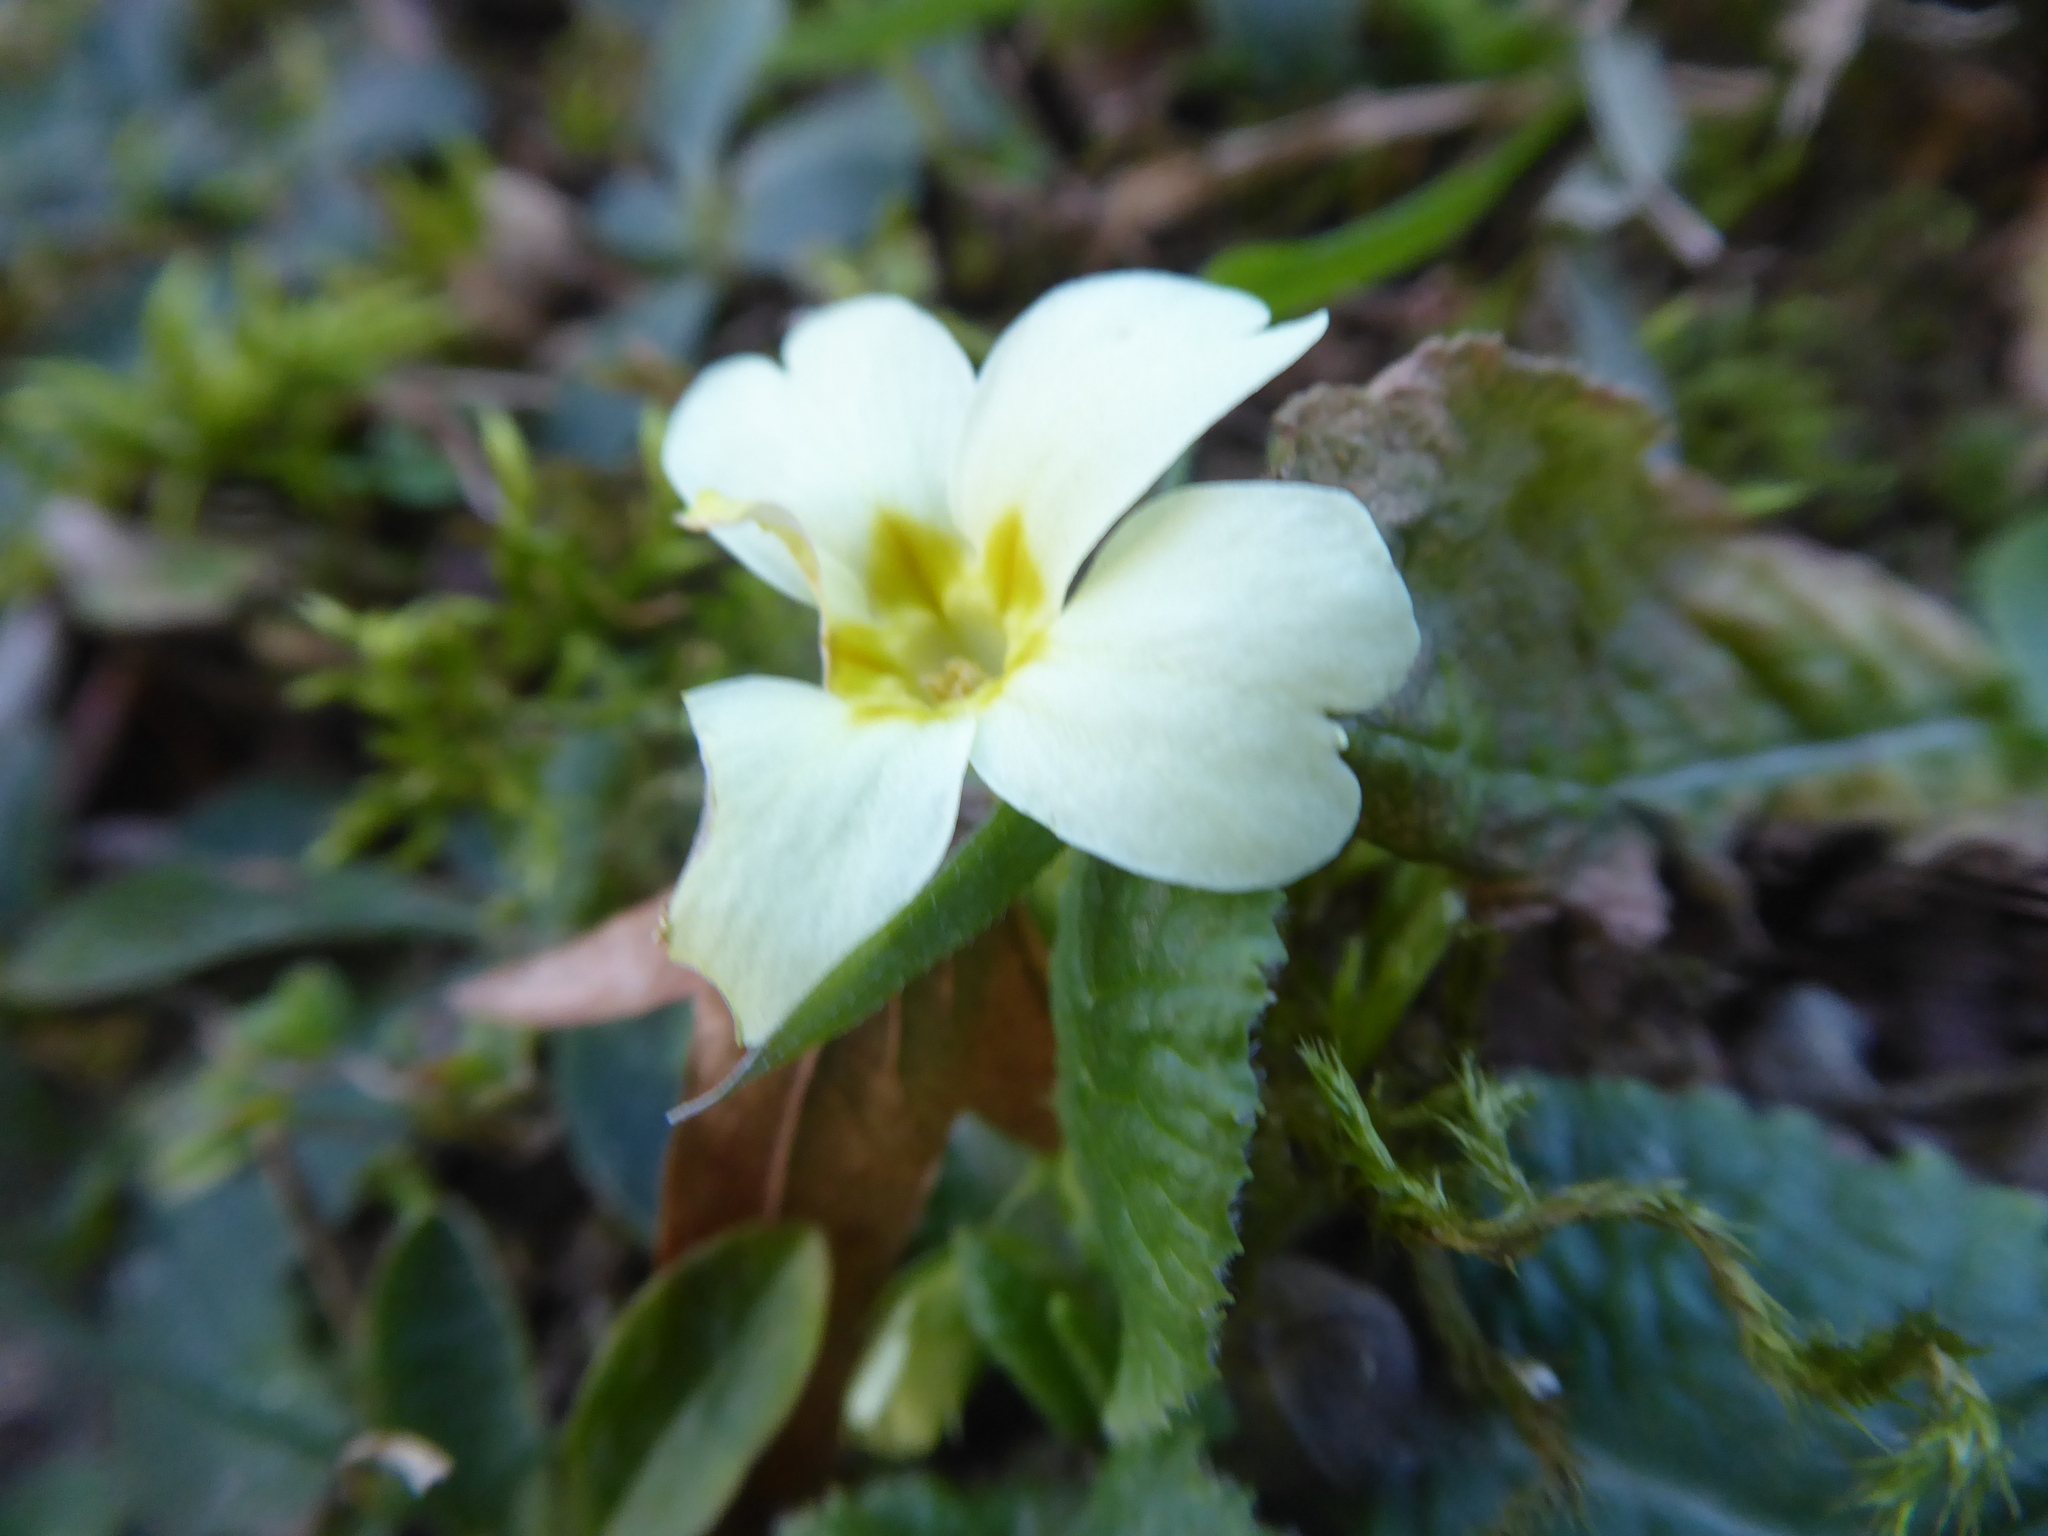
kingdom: Plantae
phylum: Tracheophyta
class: Magnoliopsida
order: Ericales
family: Primulaceae
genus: Primula
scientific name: Primula vulgaris
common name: Primrose
